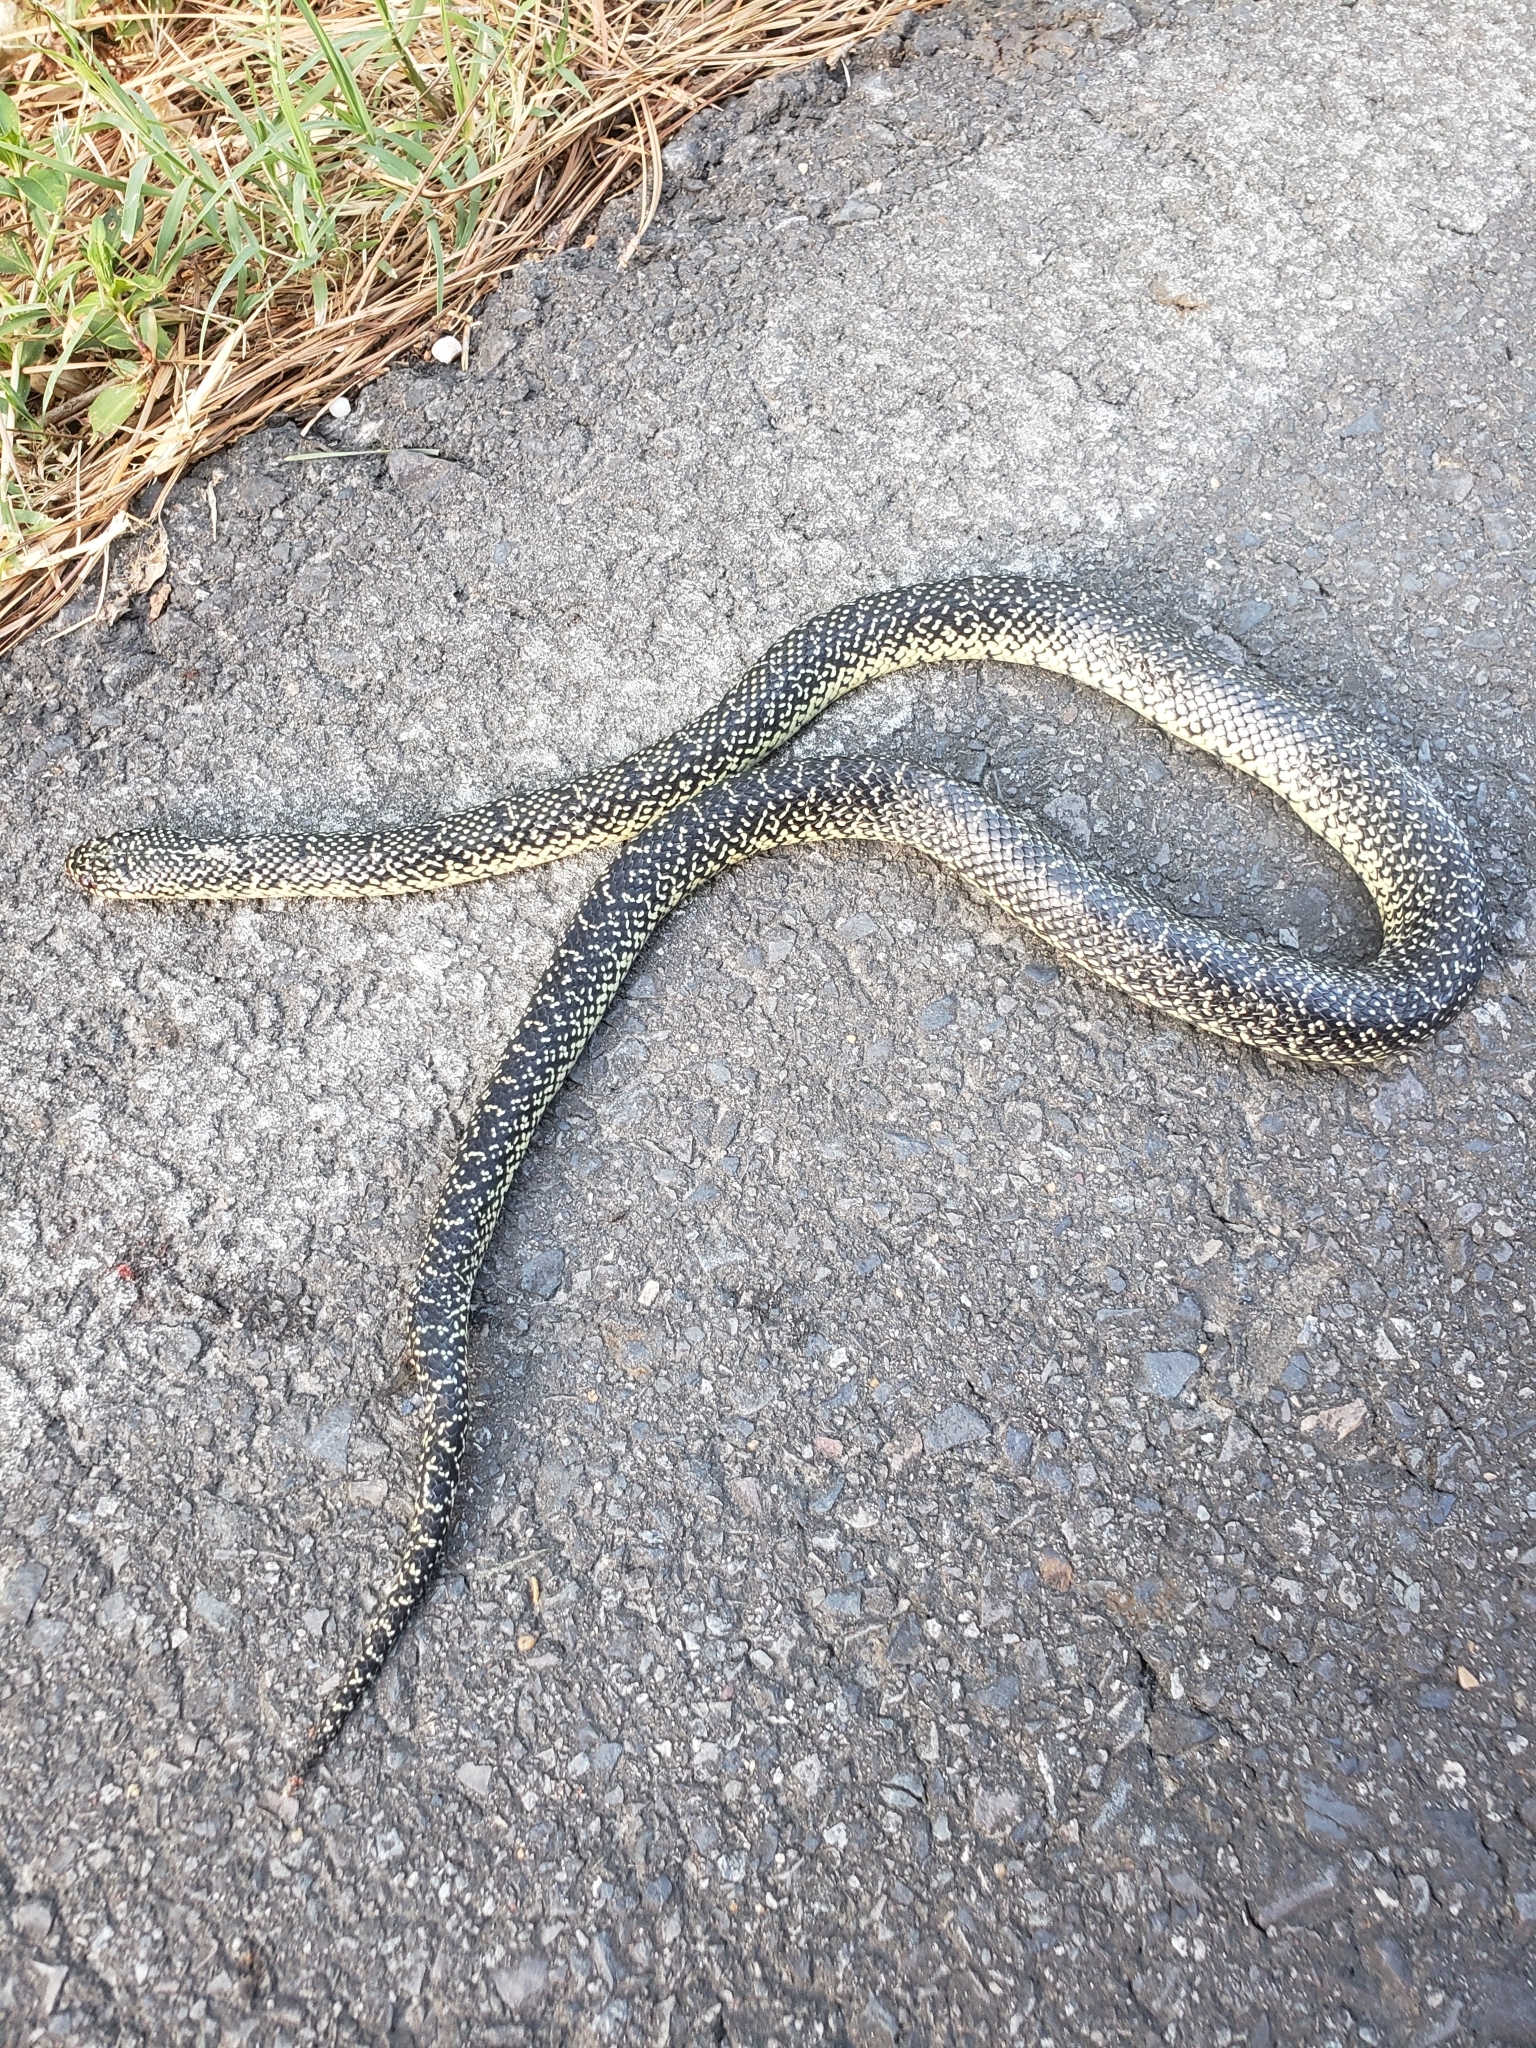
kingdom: Animalia
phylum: Chordata
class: Squamata
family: Colubridae
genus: Lampropeltis
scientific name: Lampropeltis holbrooki
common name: Speckled kingsnake
